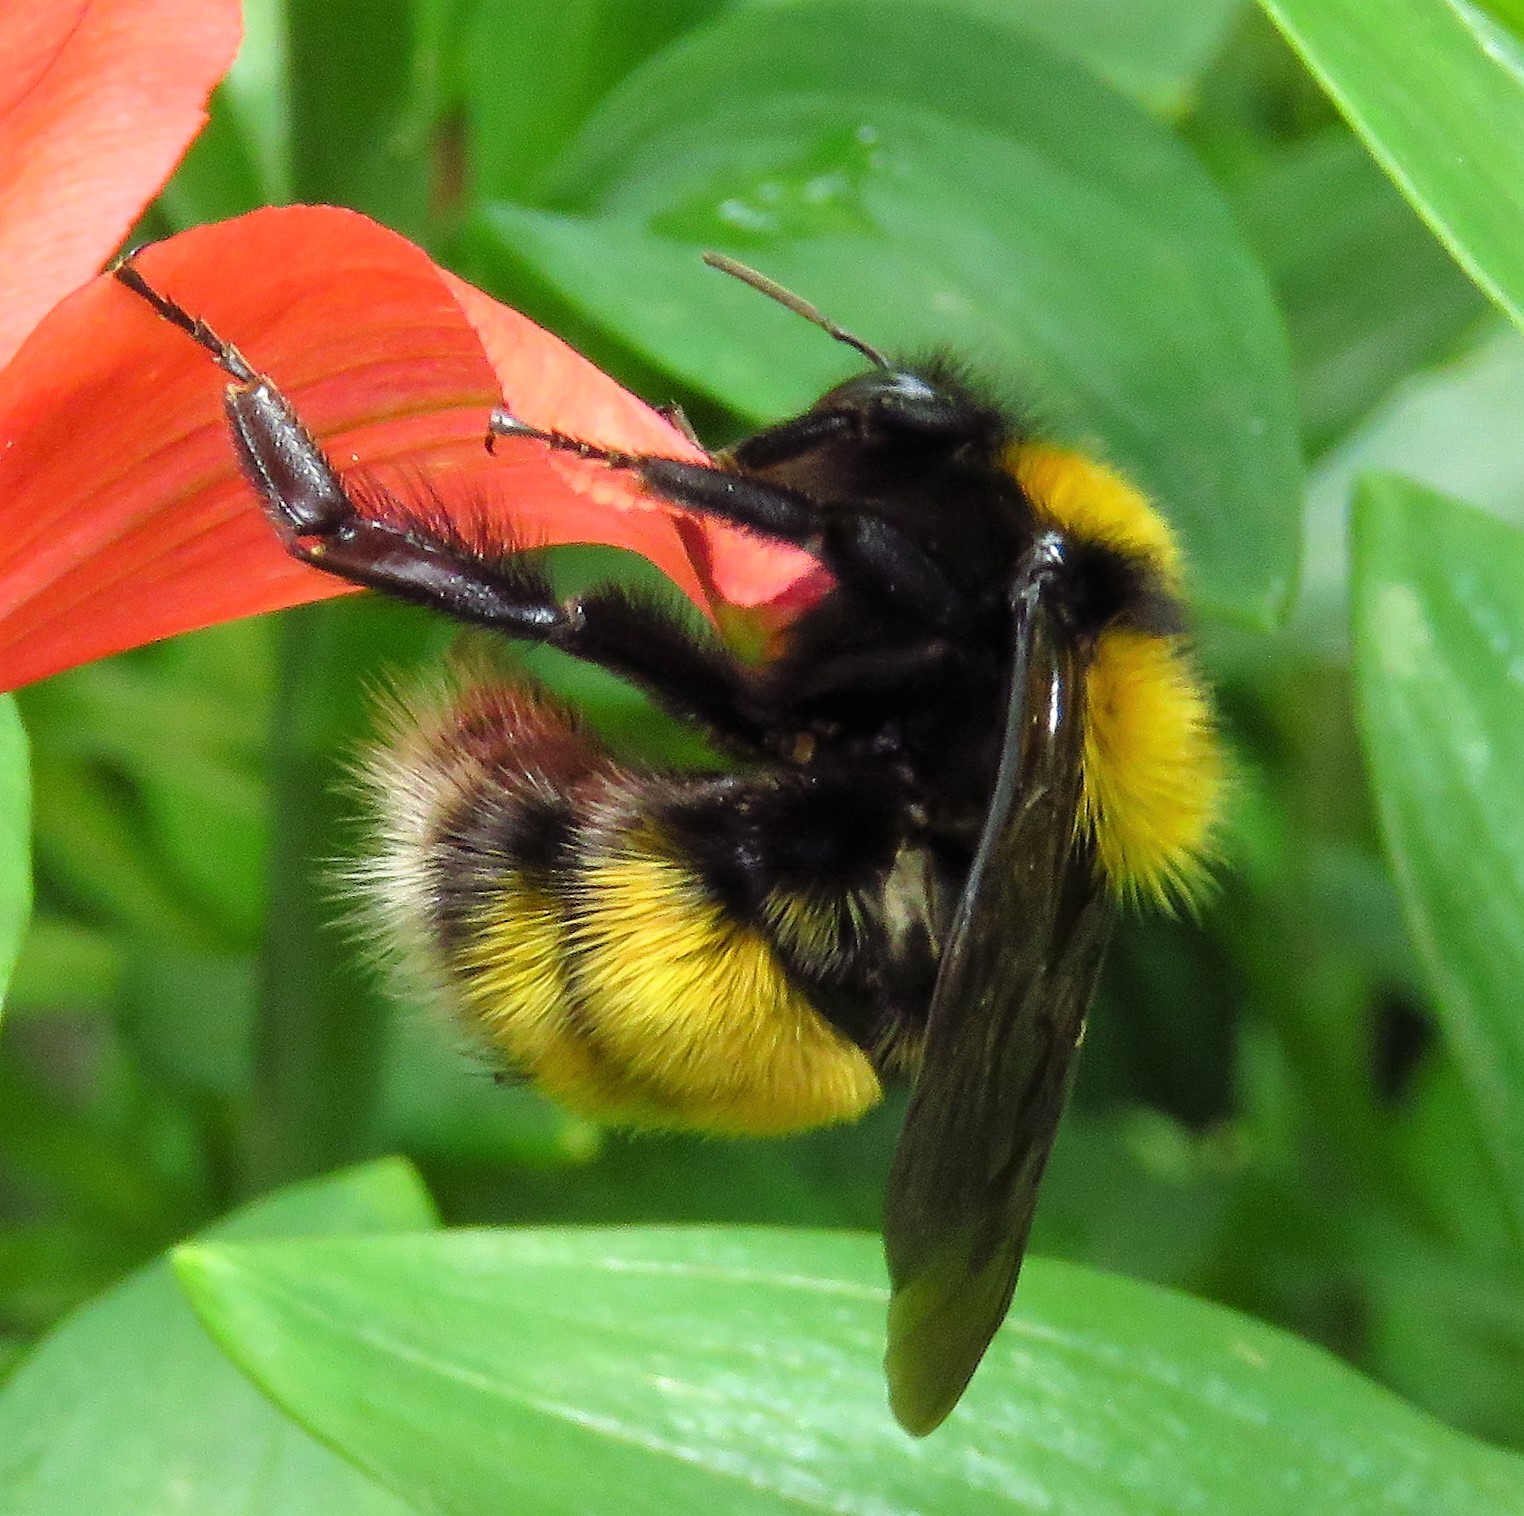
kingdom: Animalia
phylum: Arthropoda
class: Insecta
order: Hymenoptera
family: Apidae
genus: Bombus
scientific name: Bombus hortulanus
